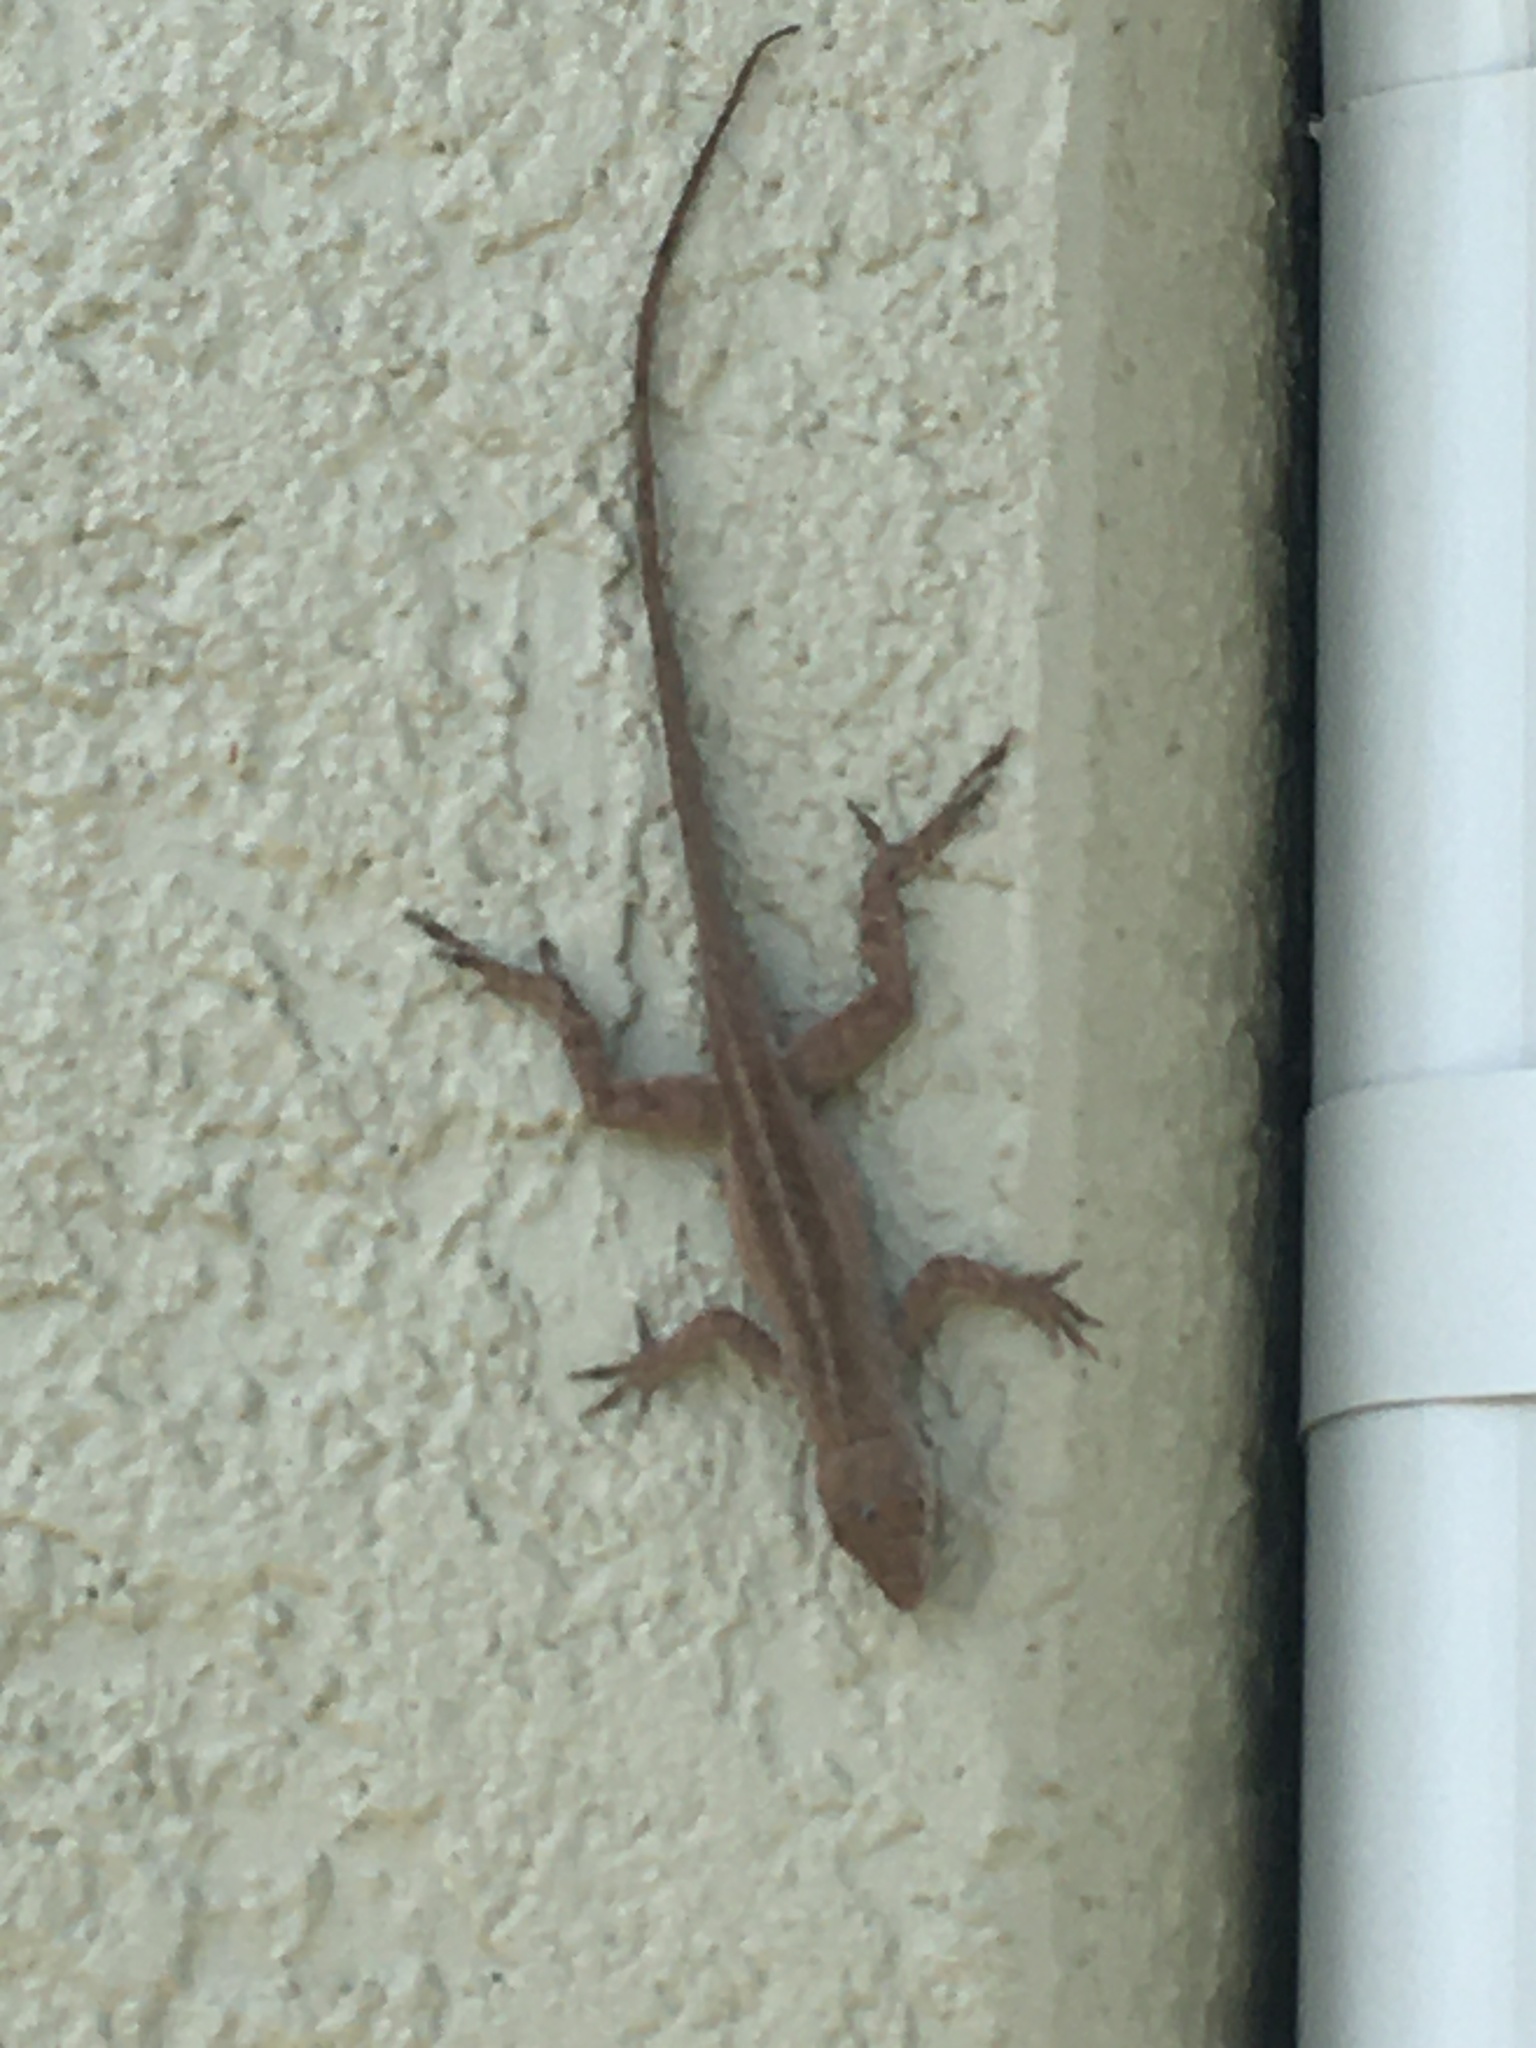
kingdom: Animalia
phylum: Chordata
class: Squamata
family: Dactyloidae
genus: Anolis
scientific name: Anolis sagrei
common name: Brown anole
